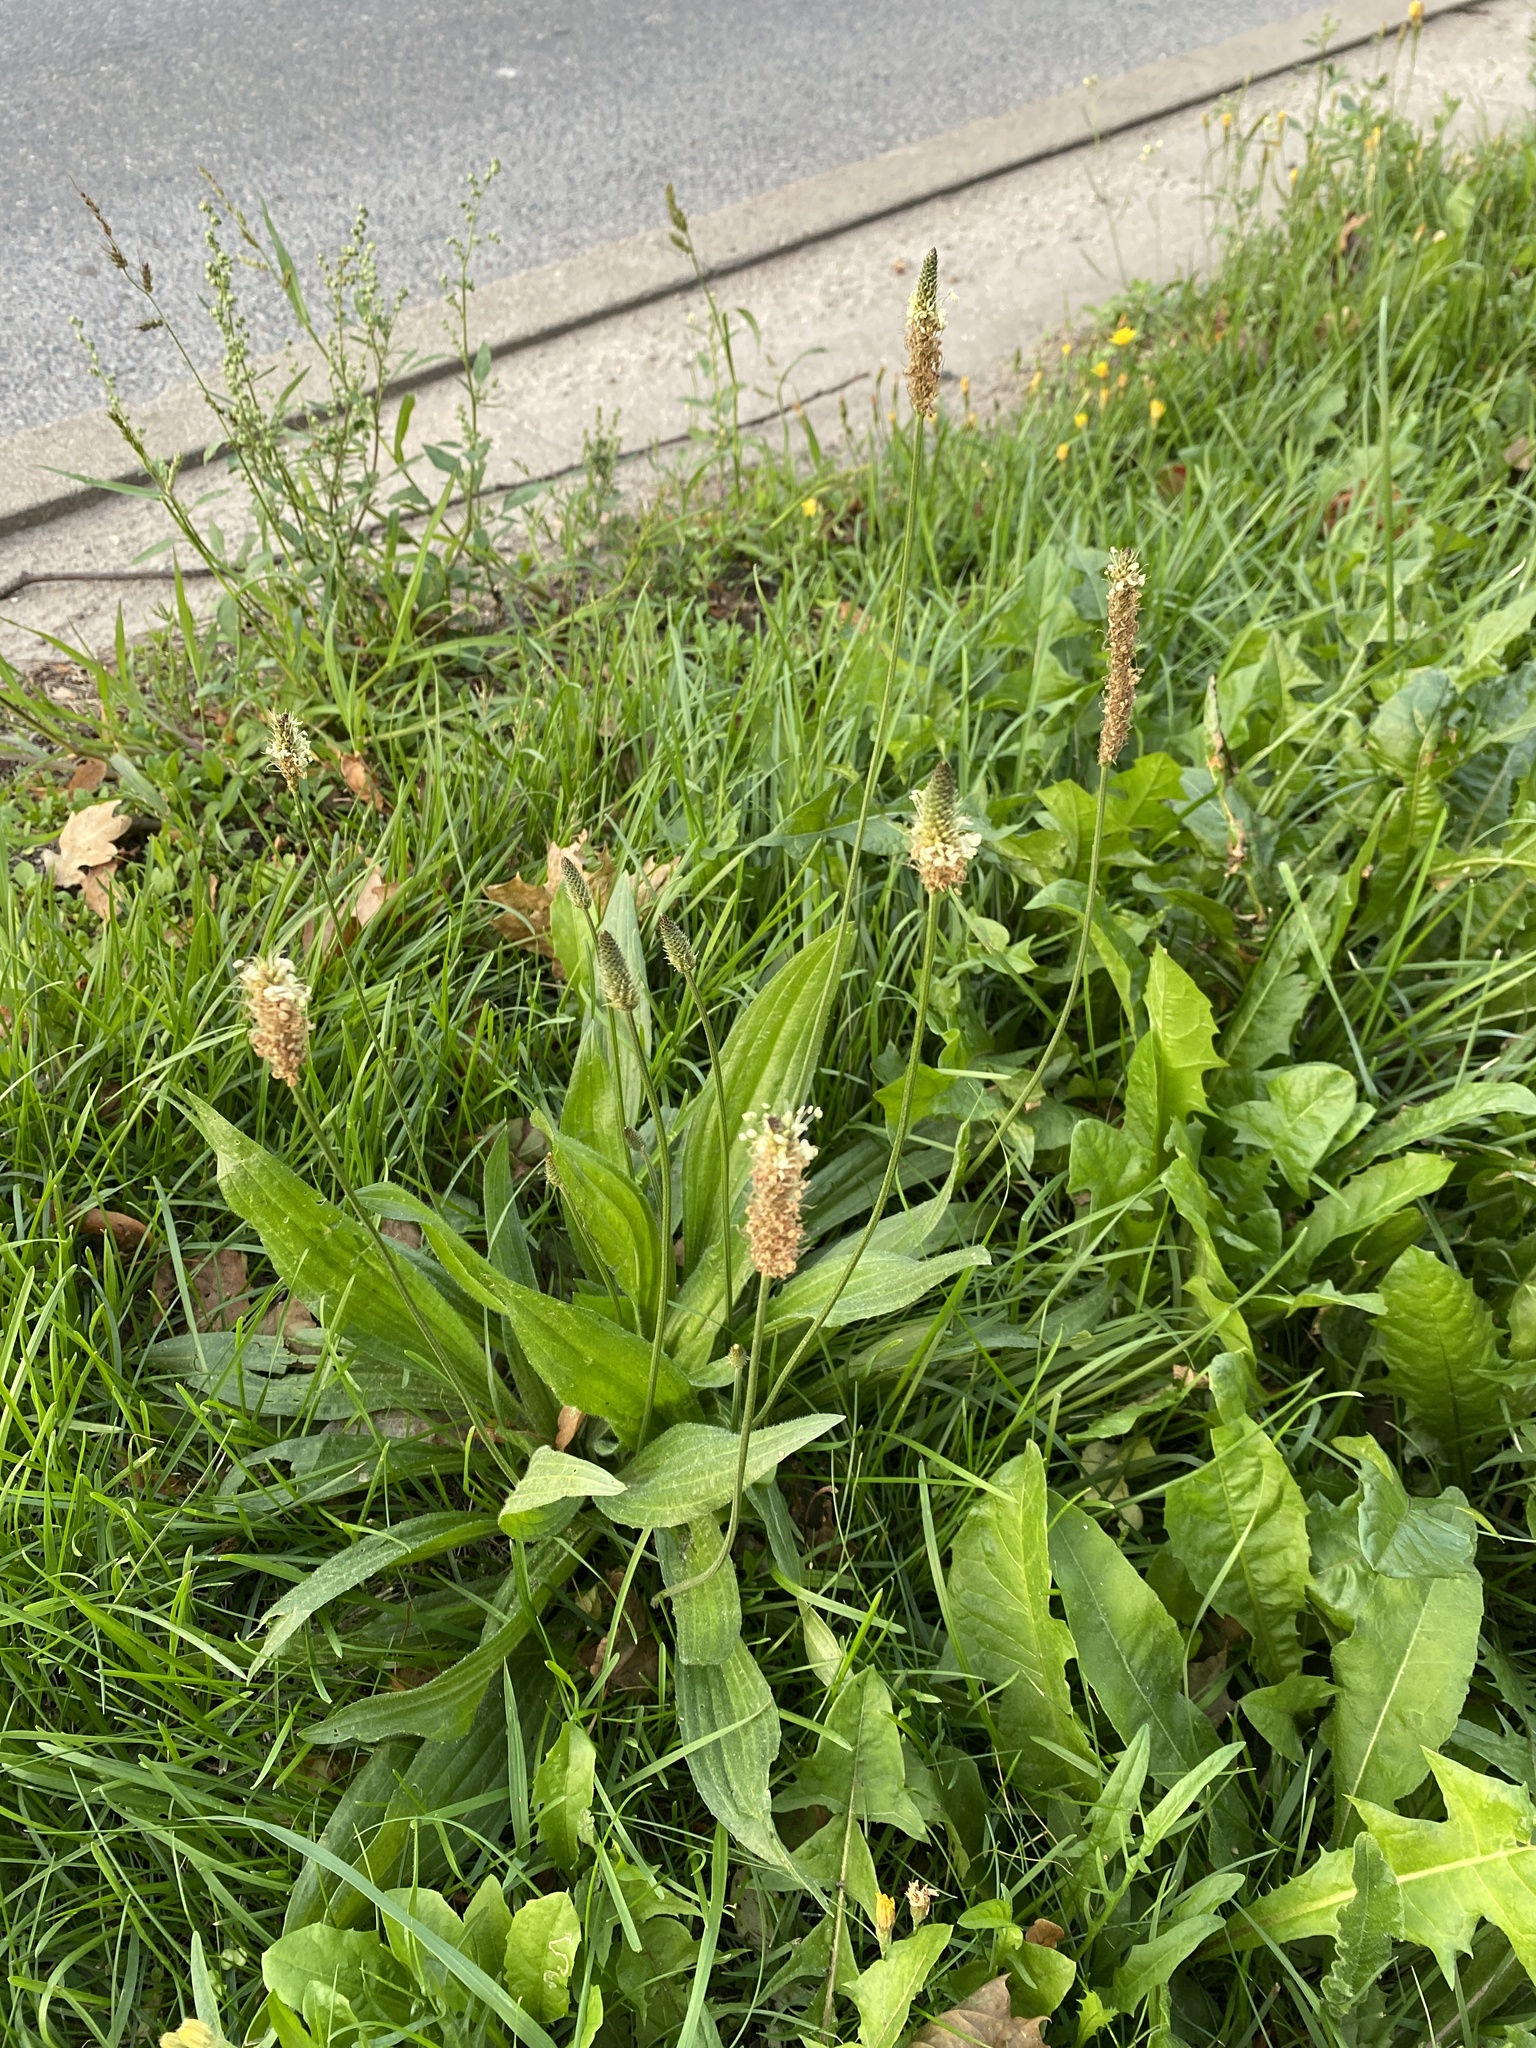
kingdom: Plantae
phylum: Tracheophyta
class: Magnoliopsida
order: Lamiales
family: Plantaginaceae
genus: Plantago
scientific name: Plantago lanceolata
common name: Ribwort plantain
